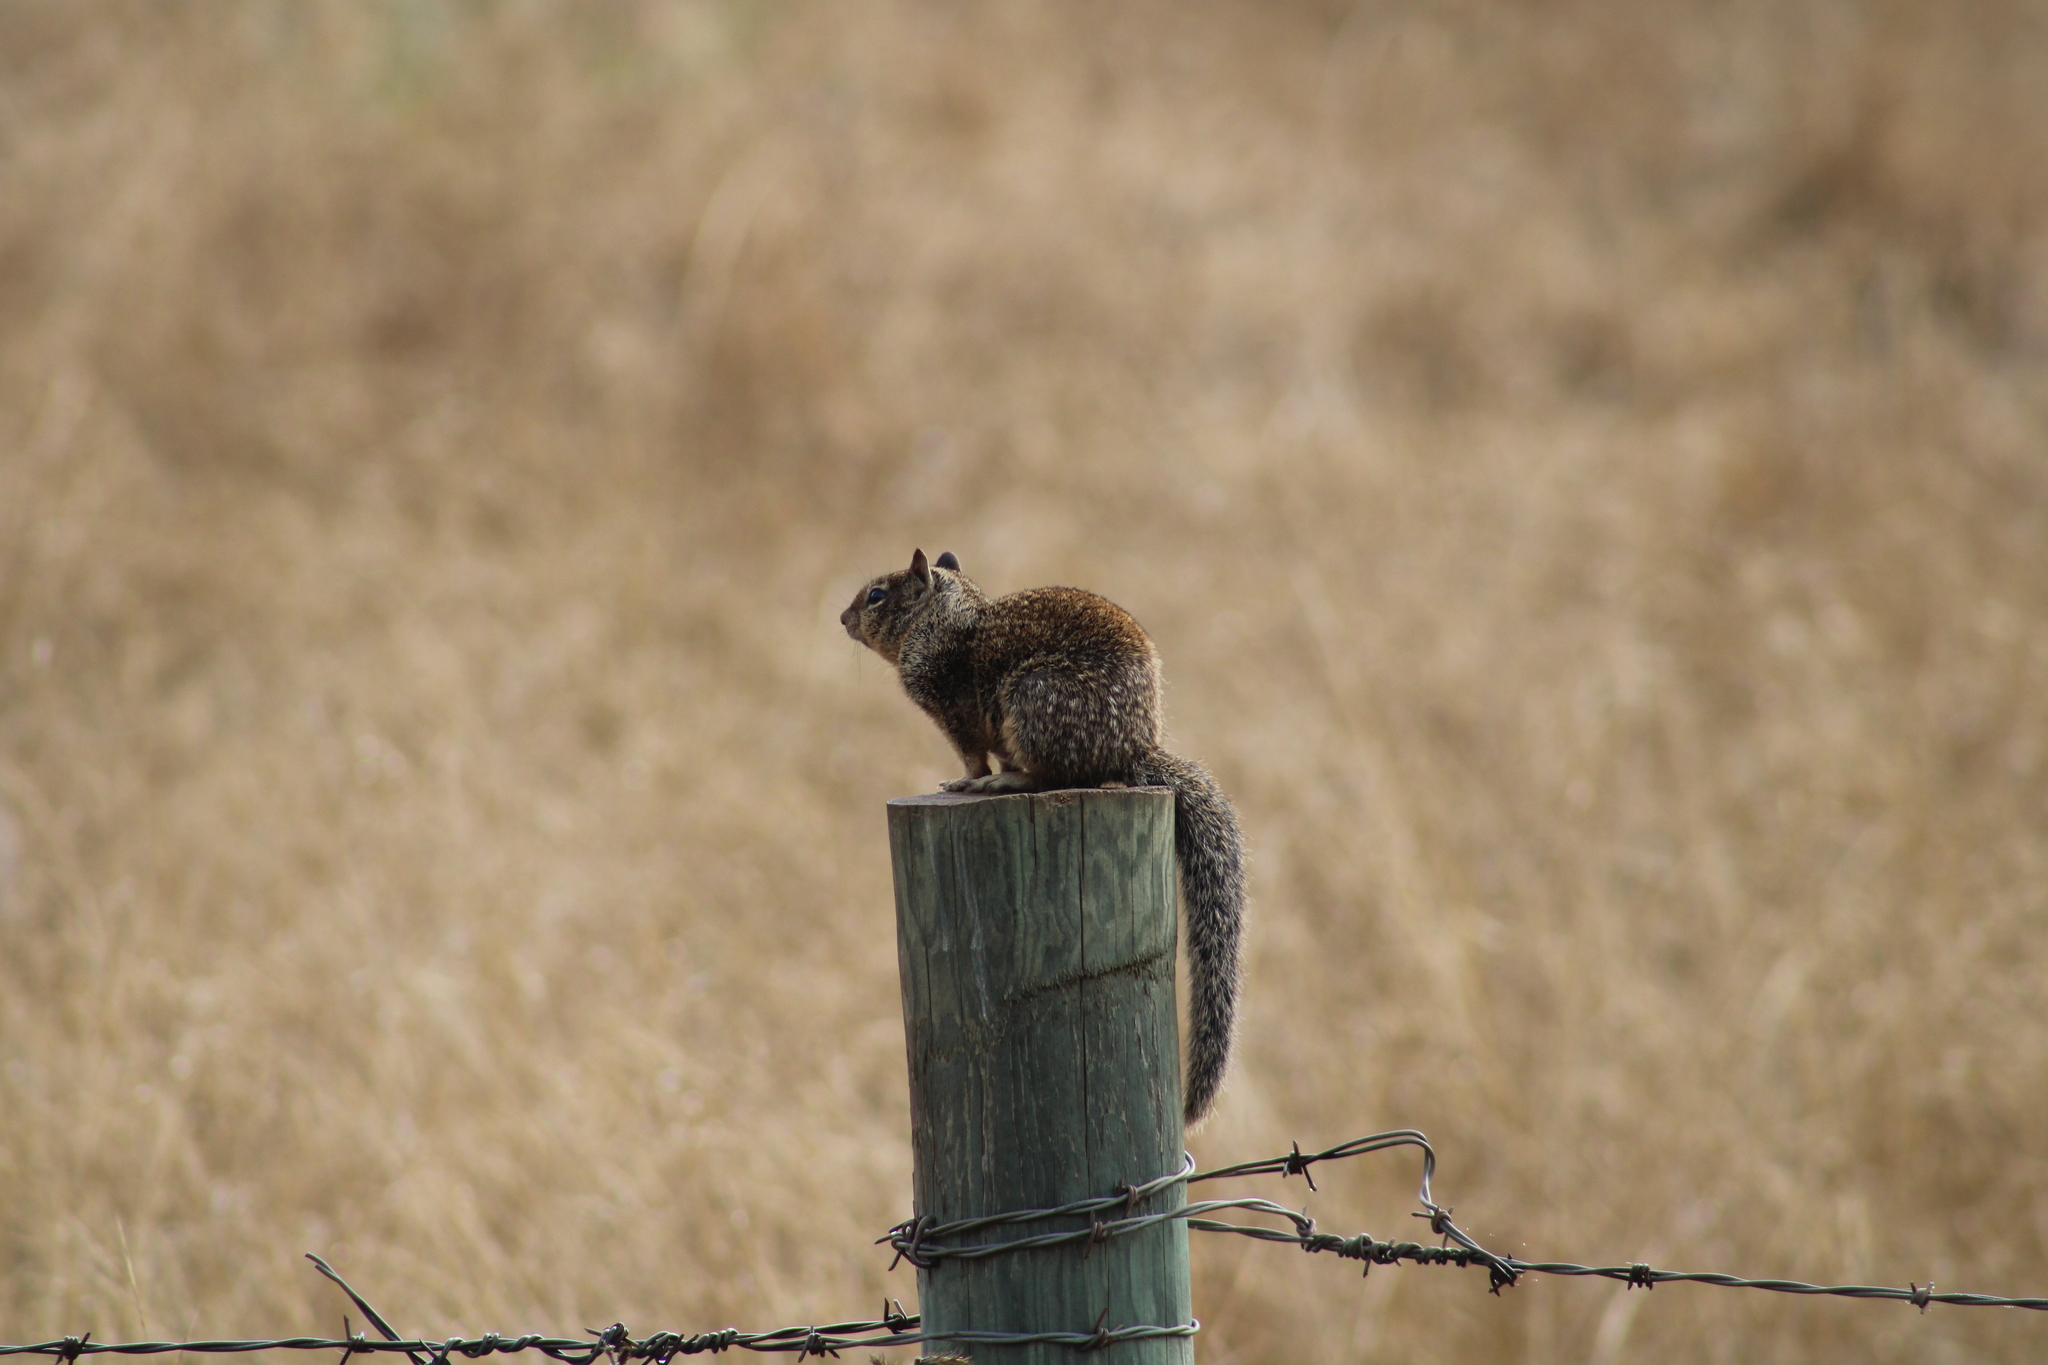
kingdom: Animalia
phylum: Chordata
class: Mammalia
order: Rodentia
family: Sciuridae
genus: Otospermophilus
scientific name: Otospermophilus beecheyi
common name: California ground squirrel
